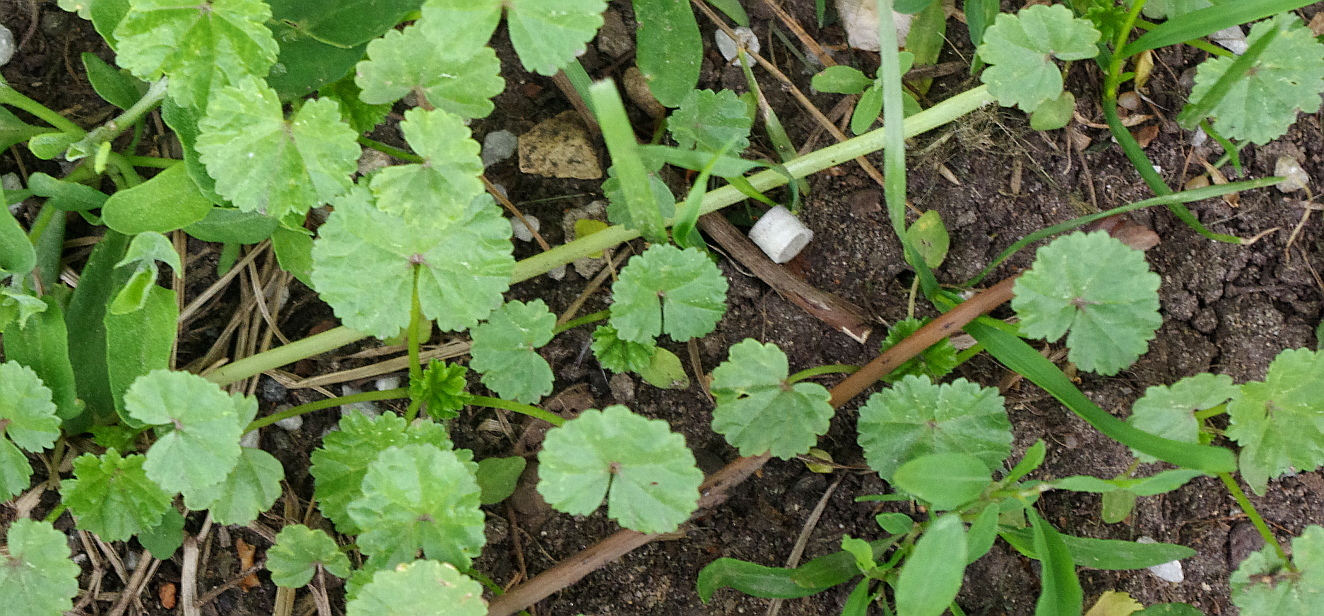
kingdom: Plantae
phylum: Tracheophyta
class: Magnoliopsida
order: Malvales
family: Malvaceae
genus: Malva
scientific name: Malva pusilla
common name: Small mallow
